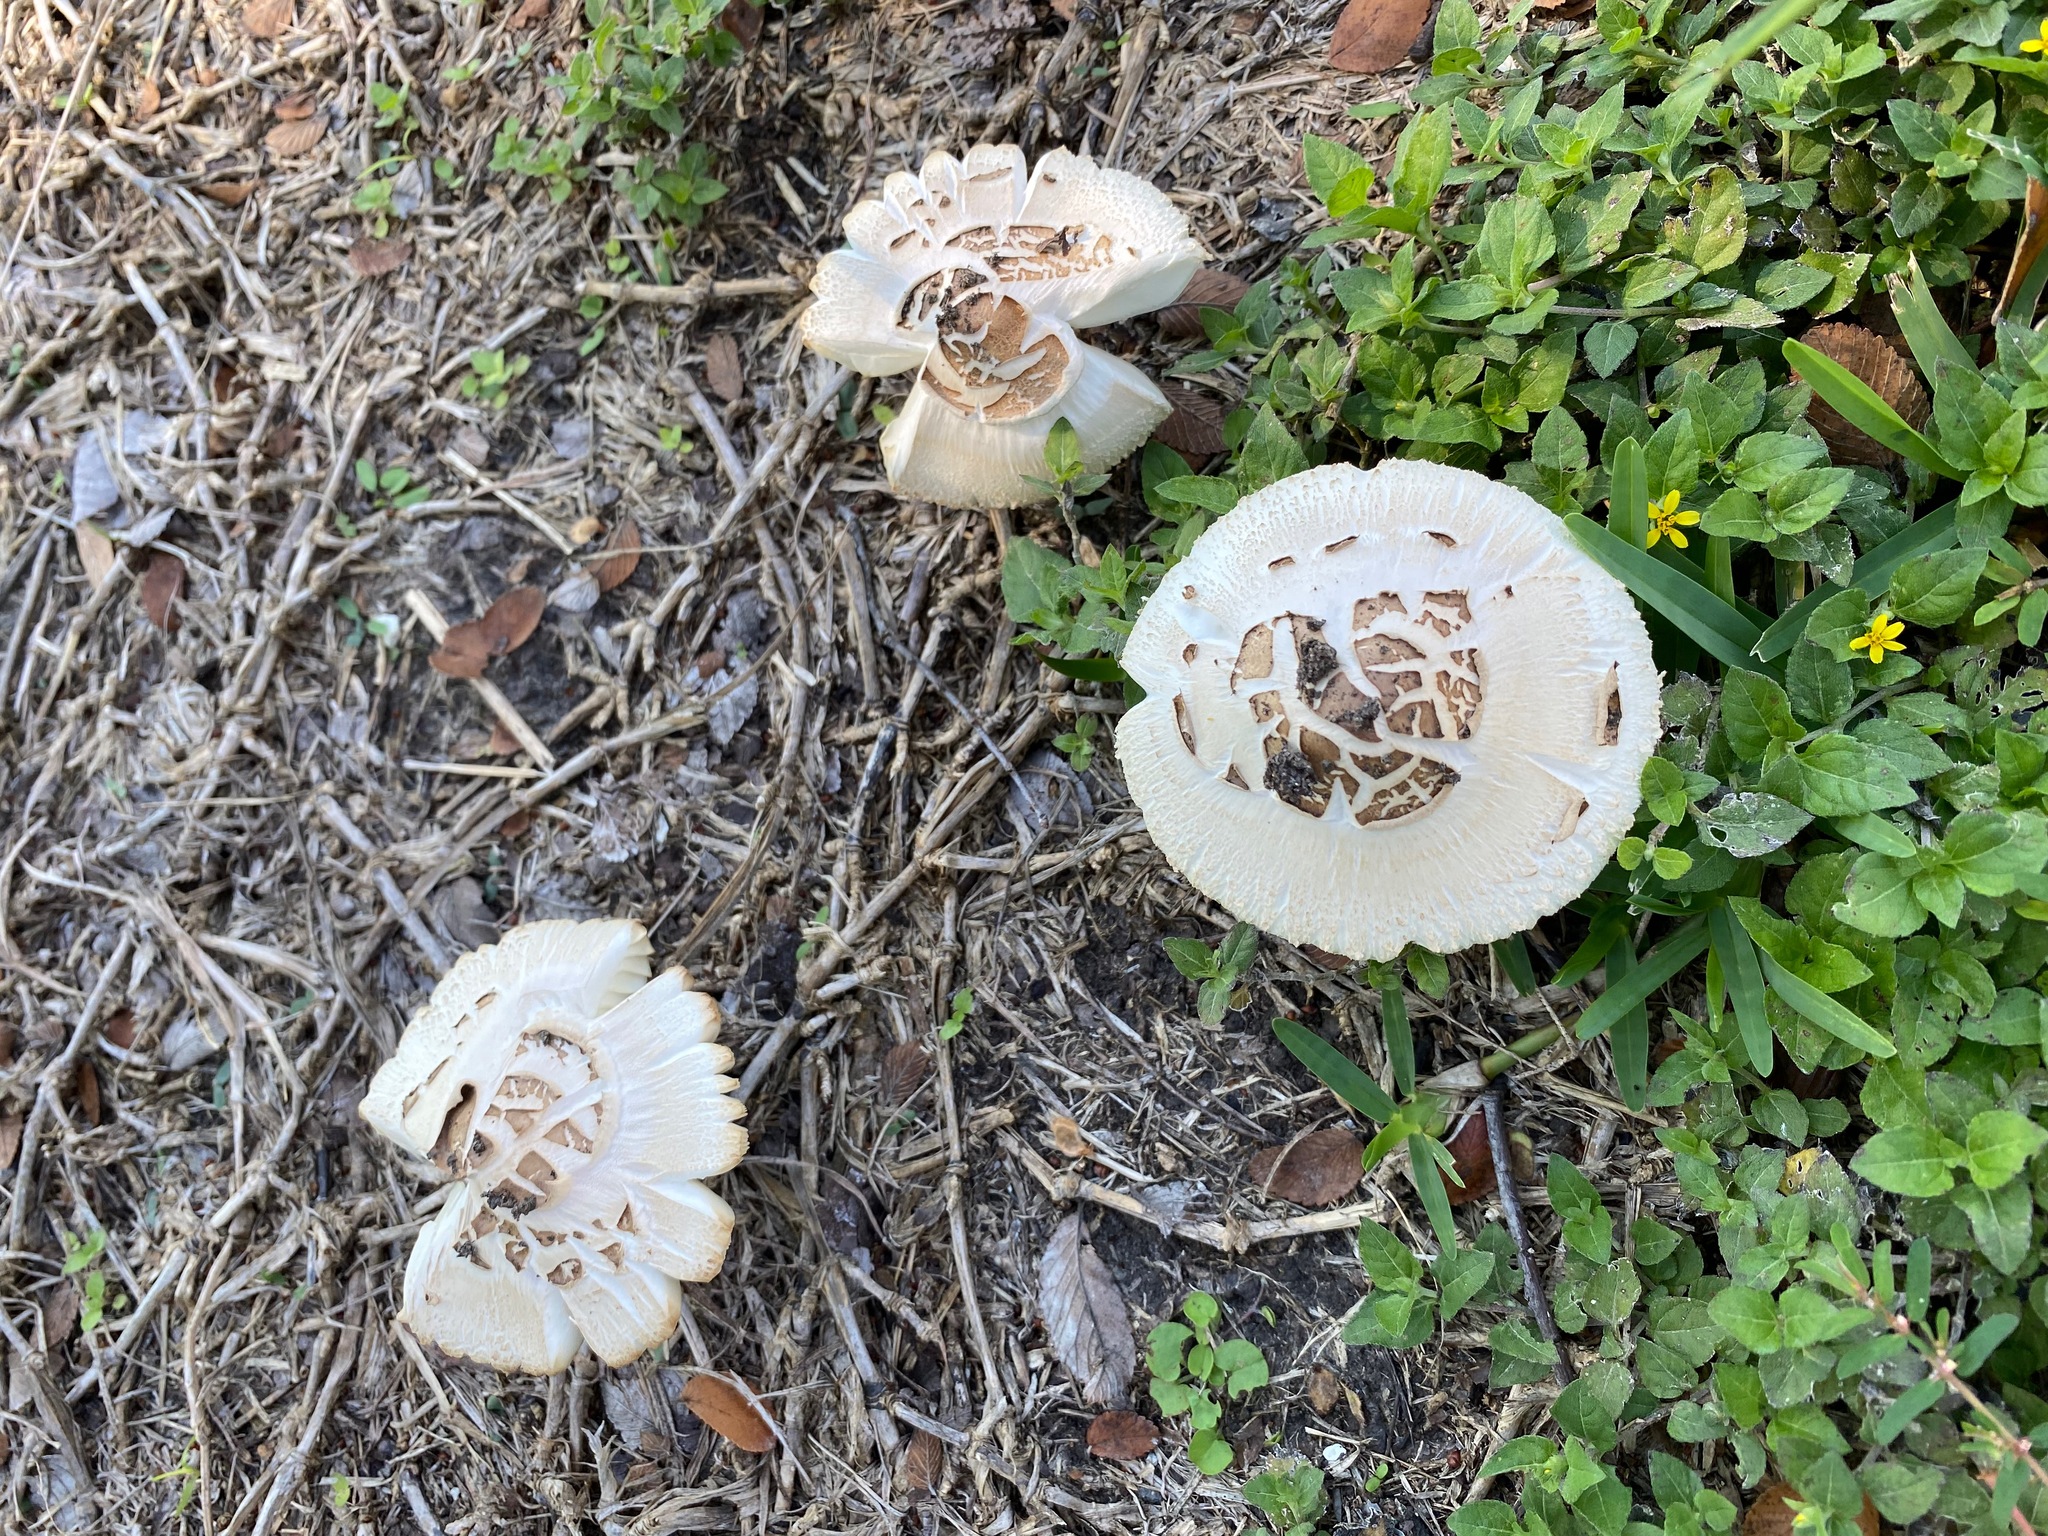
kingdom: Fungi
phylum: Basidiomycota
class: Agaricomycetes
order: Agaricales
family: Agaricaceae
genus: Chlorophyllum
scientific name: Chlorophyllum molybdites
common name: False parasol
